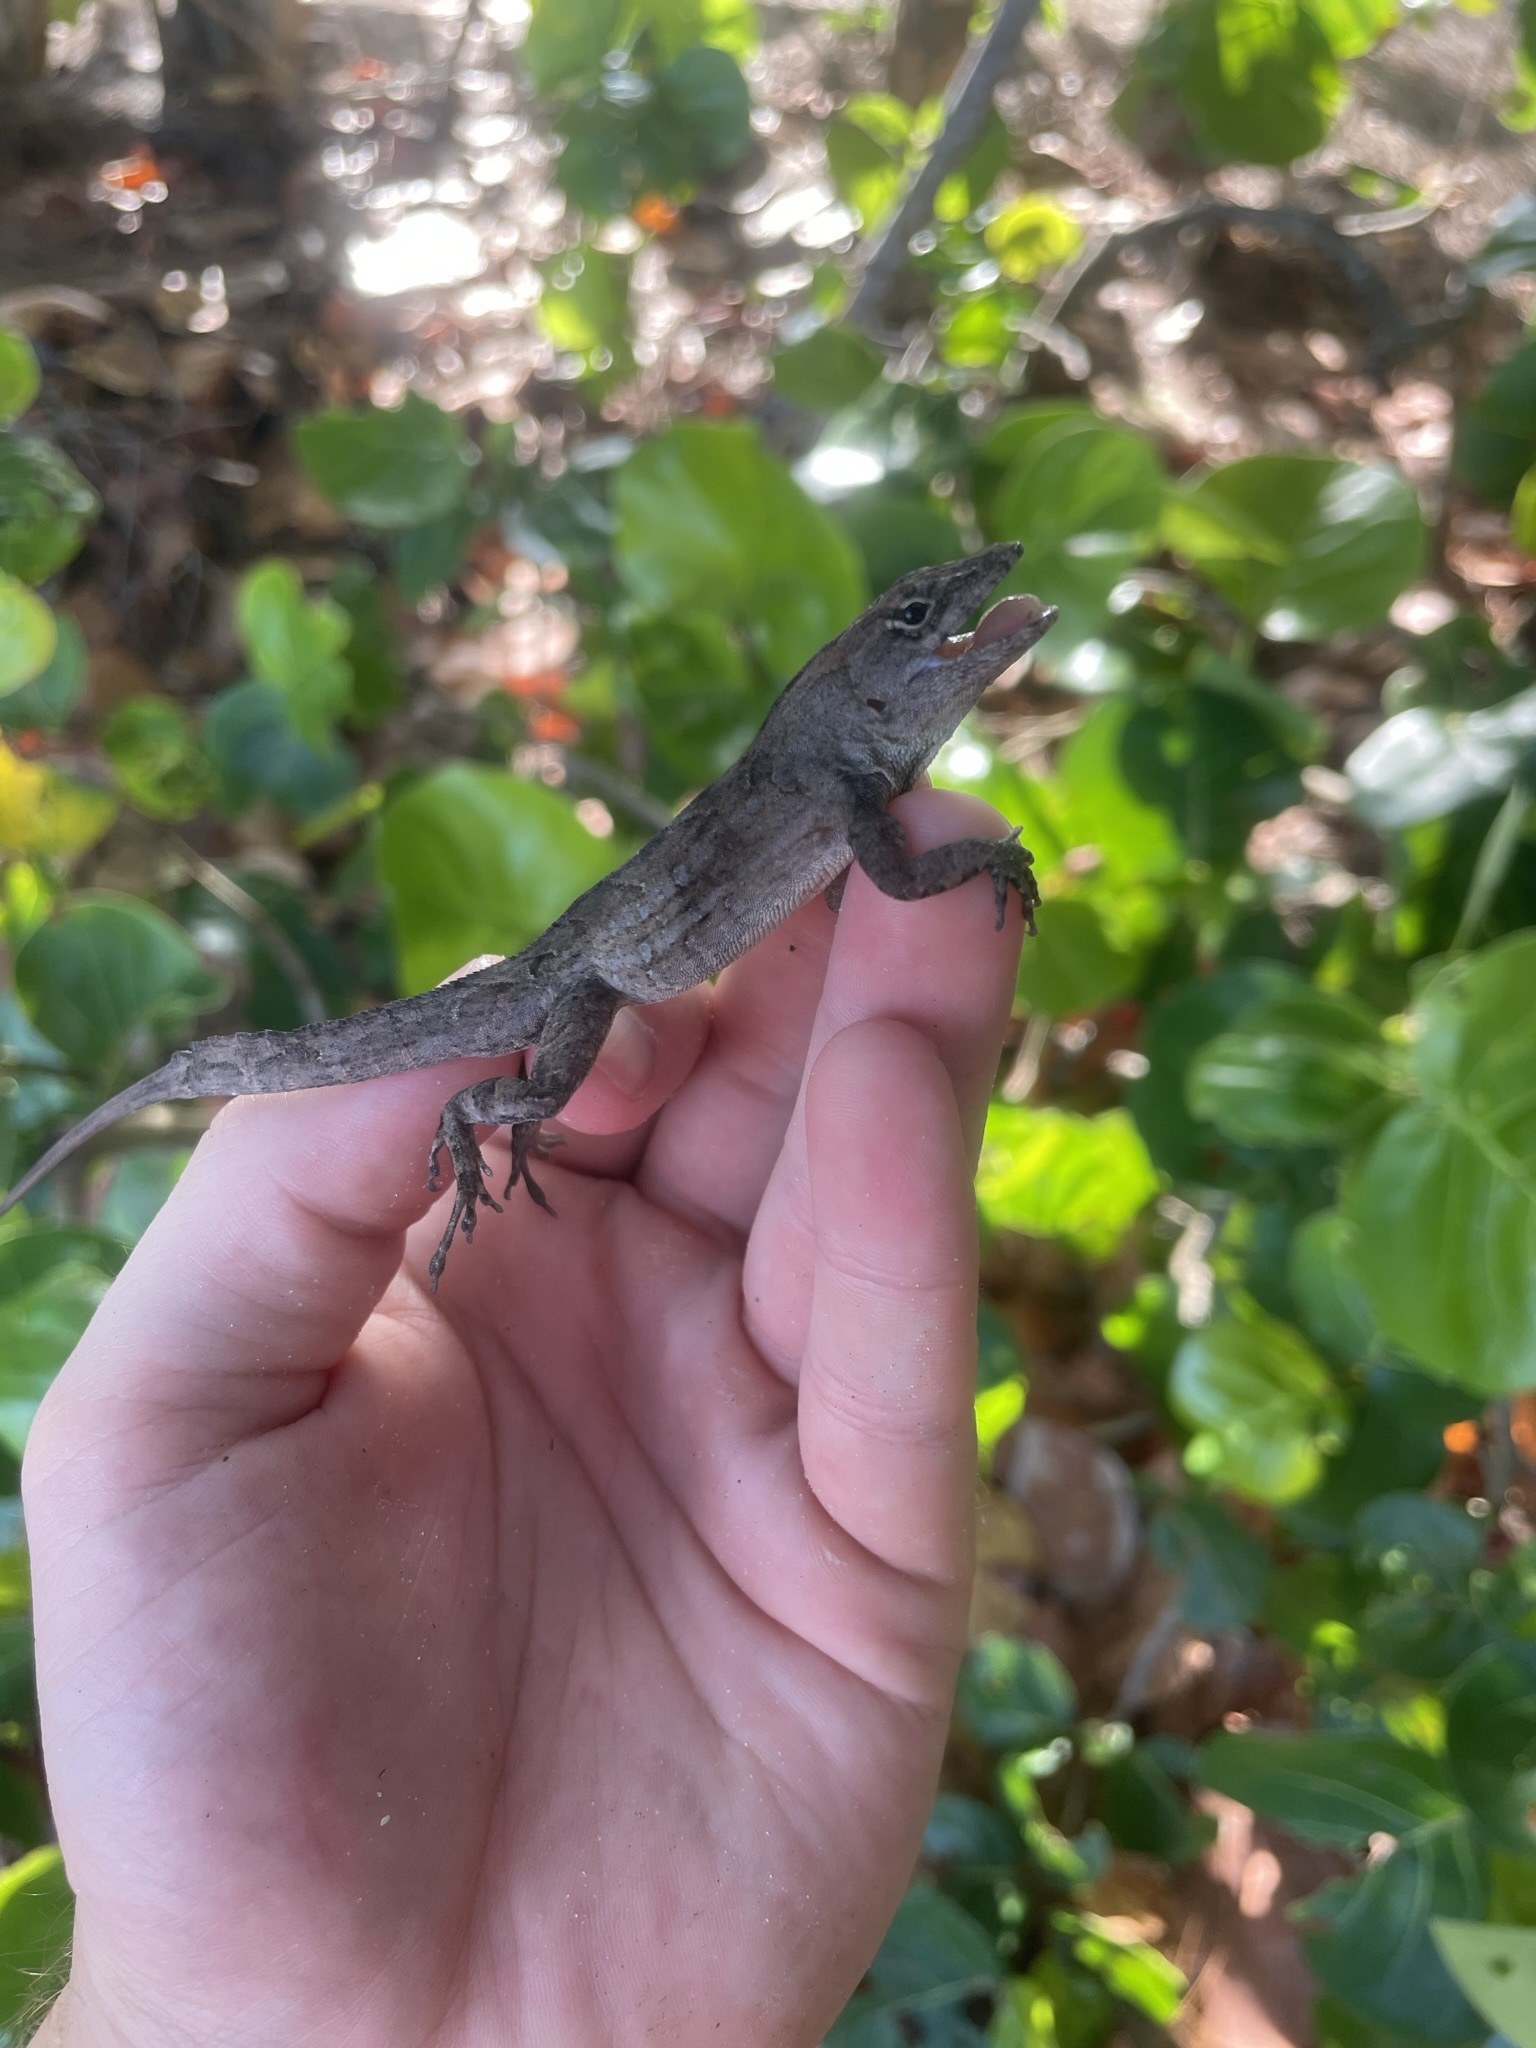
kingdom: Animalia
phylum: Chordata
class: Squamata
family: Dactyloidae
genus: Anolis
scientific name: Anolis sagrei
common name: Brown anole
